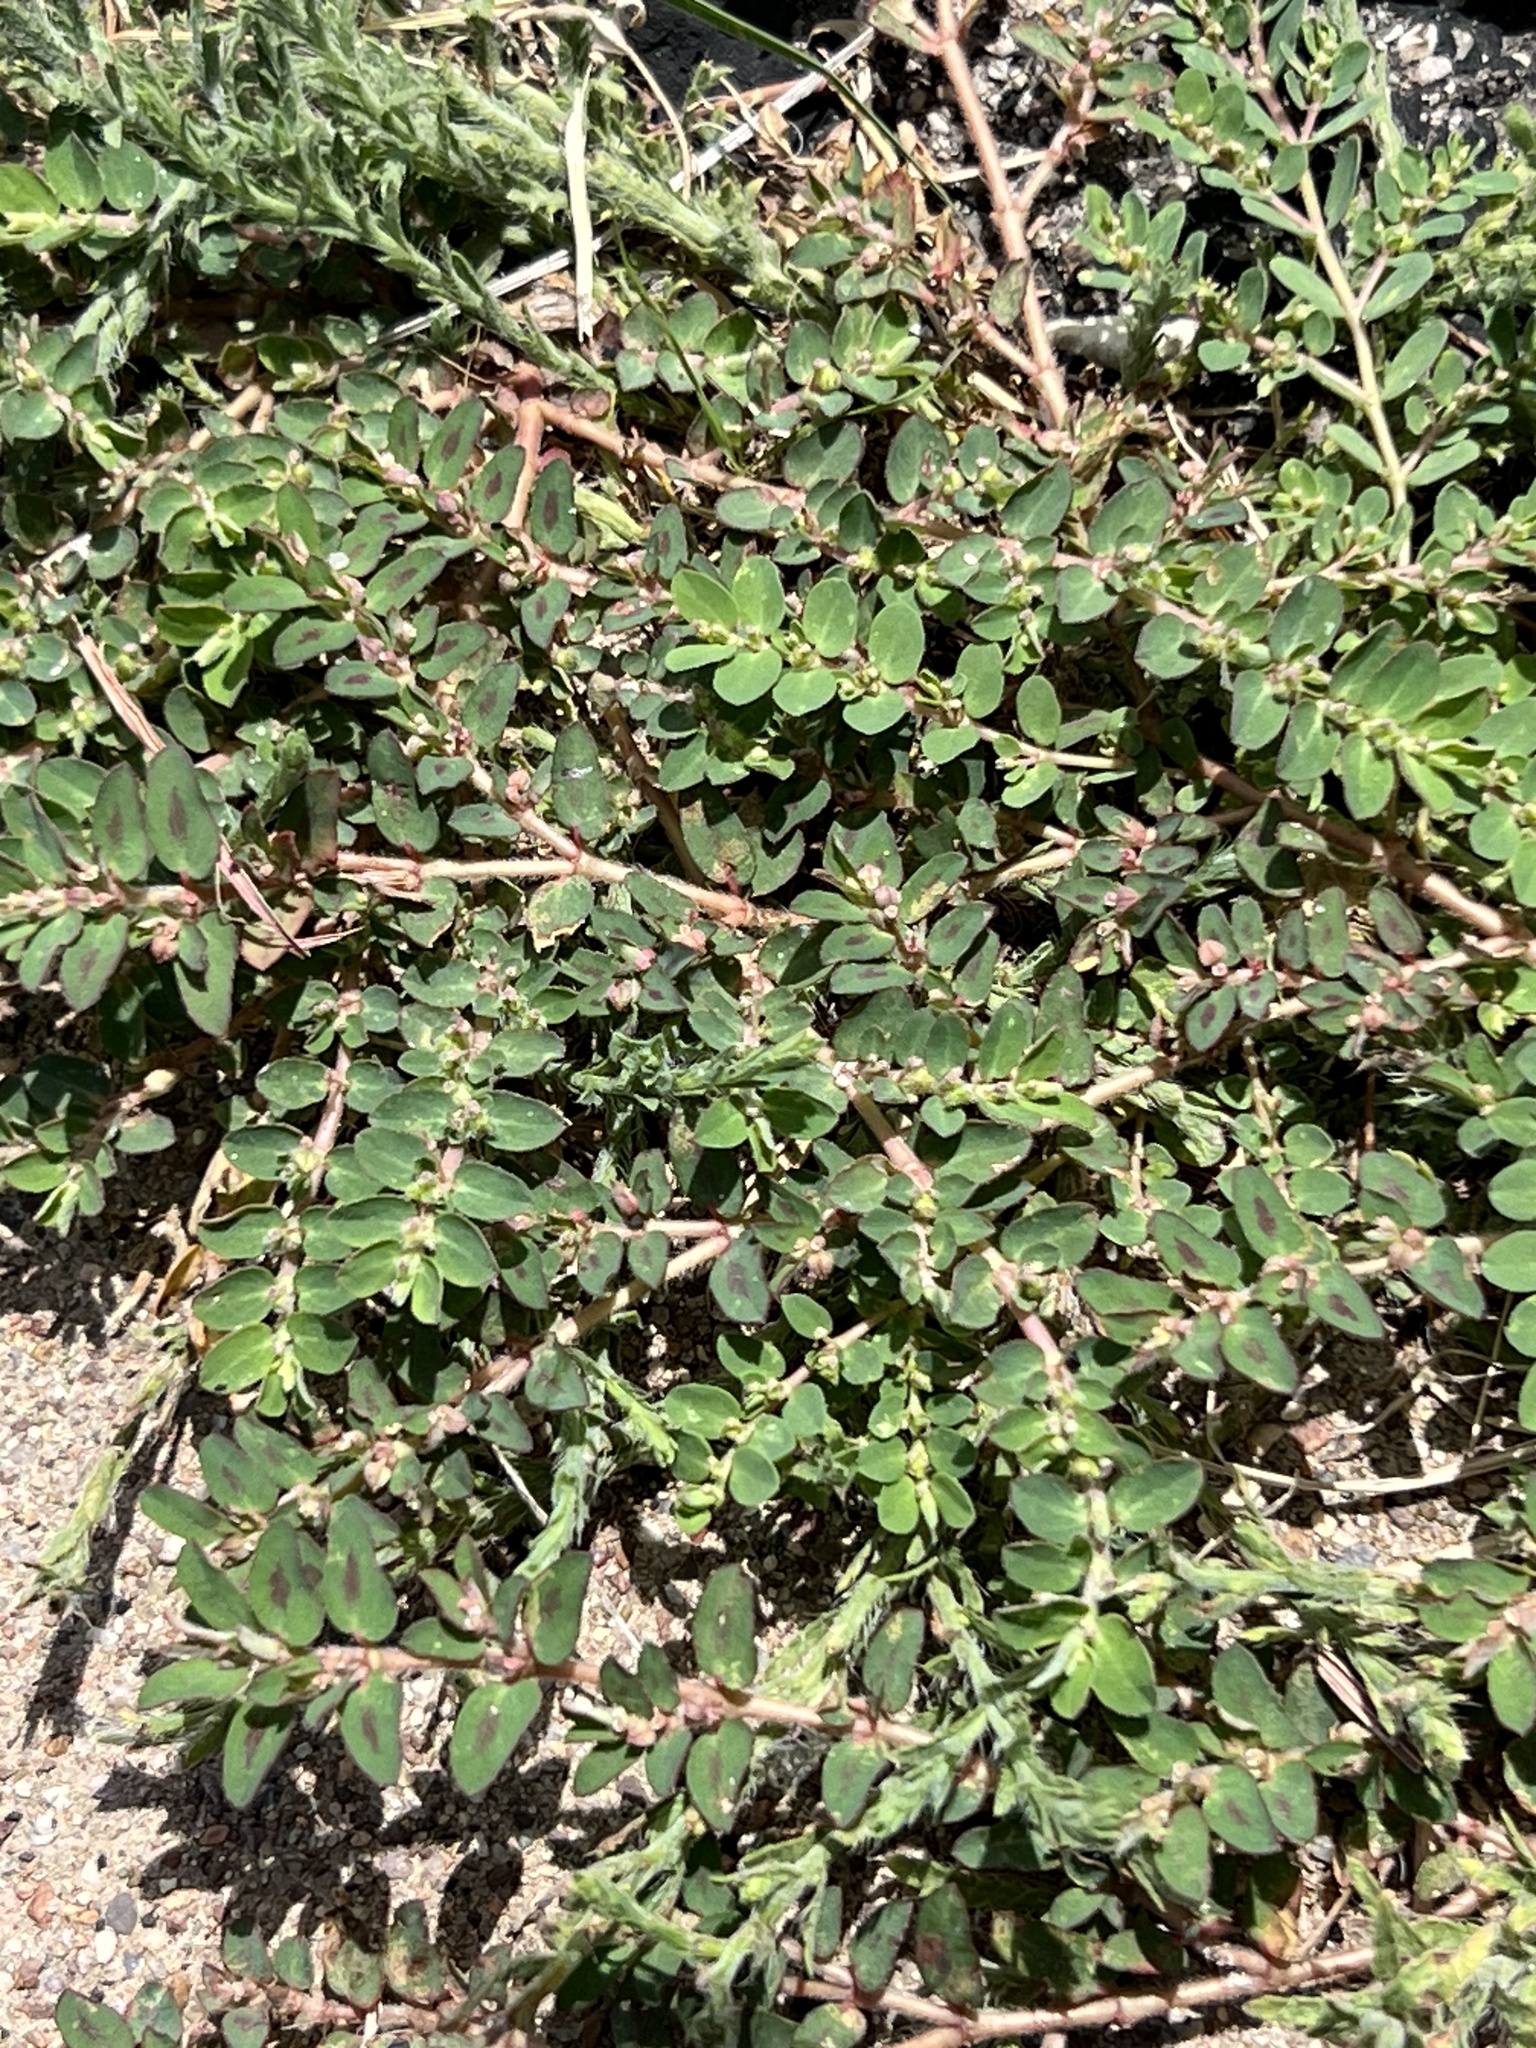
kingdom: Plantae
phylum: Tracheophyta
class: Magnoliopsida
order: Malpighiales
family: Euphorbiaceae
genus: Euphorbia
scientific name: Euphorbia prostrata
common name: Prostrate sandmat
